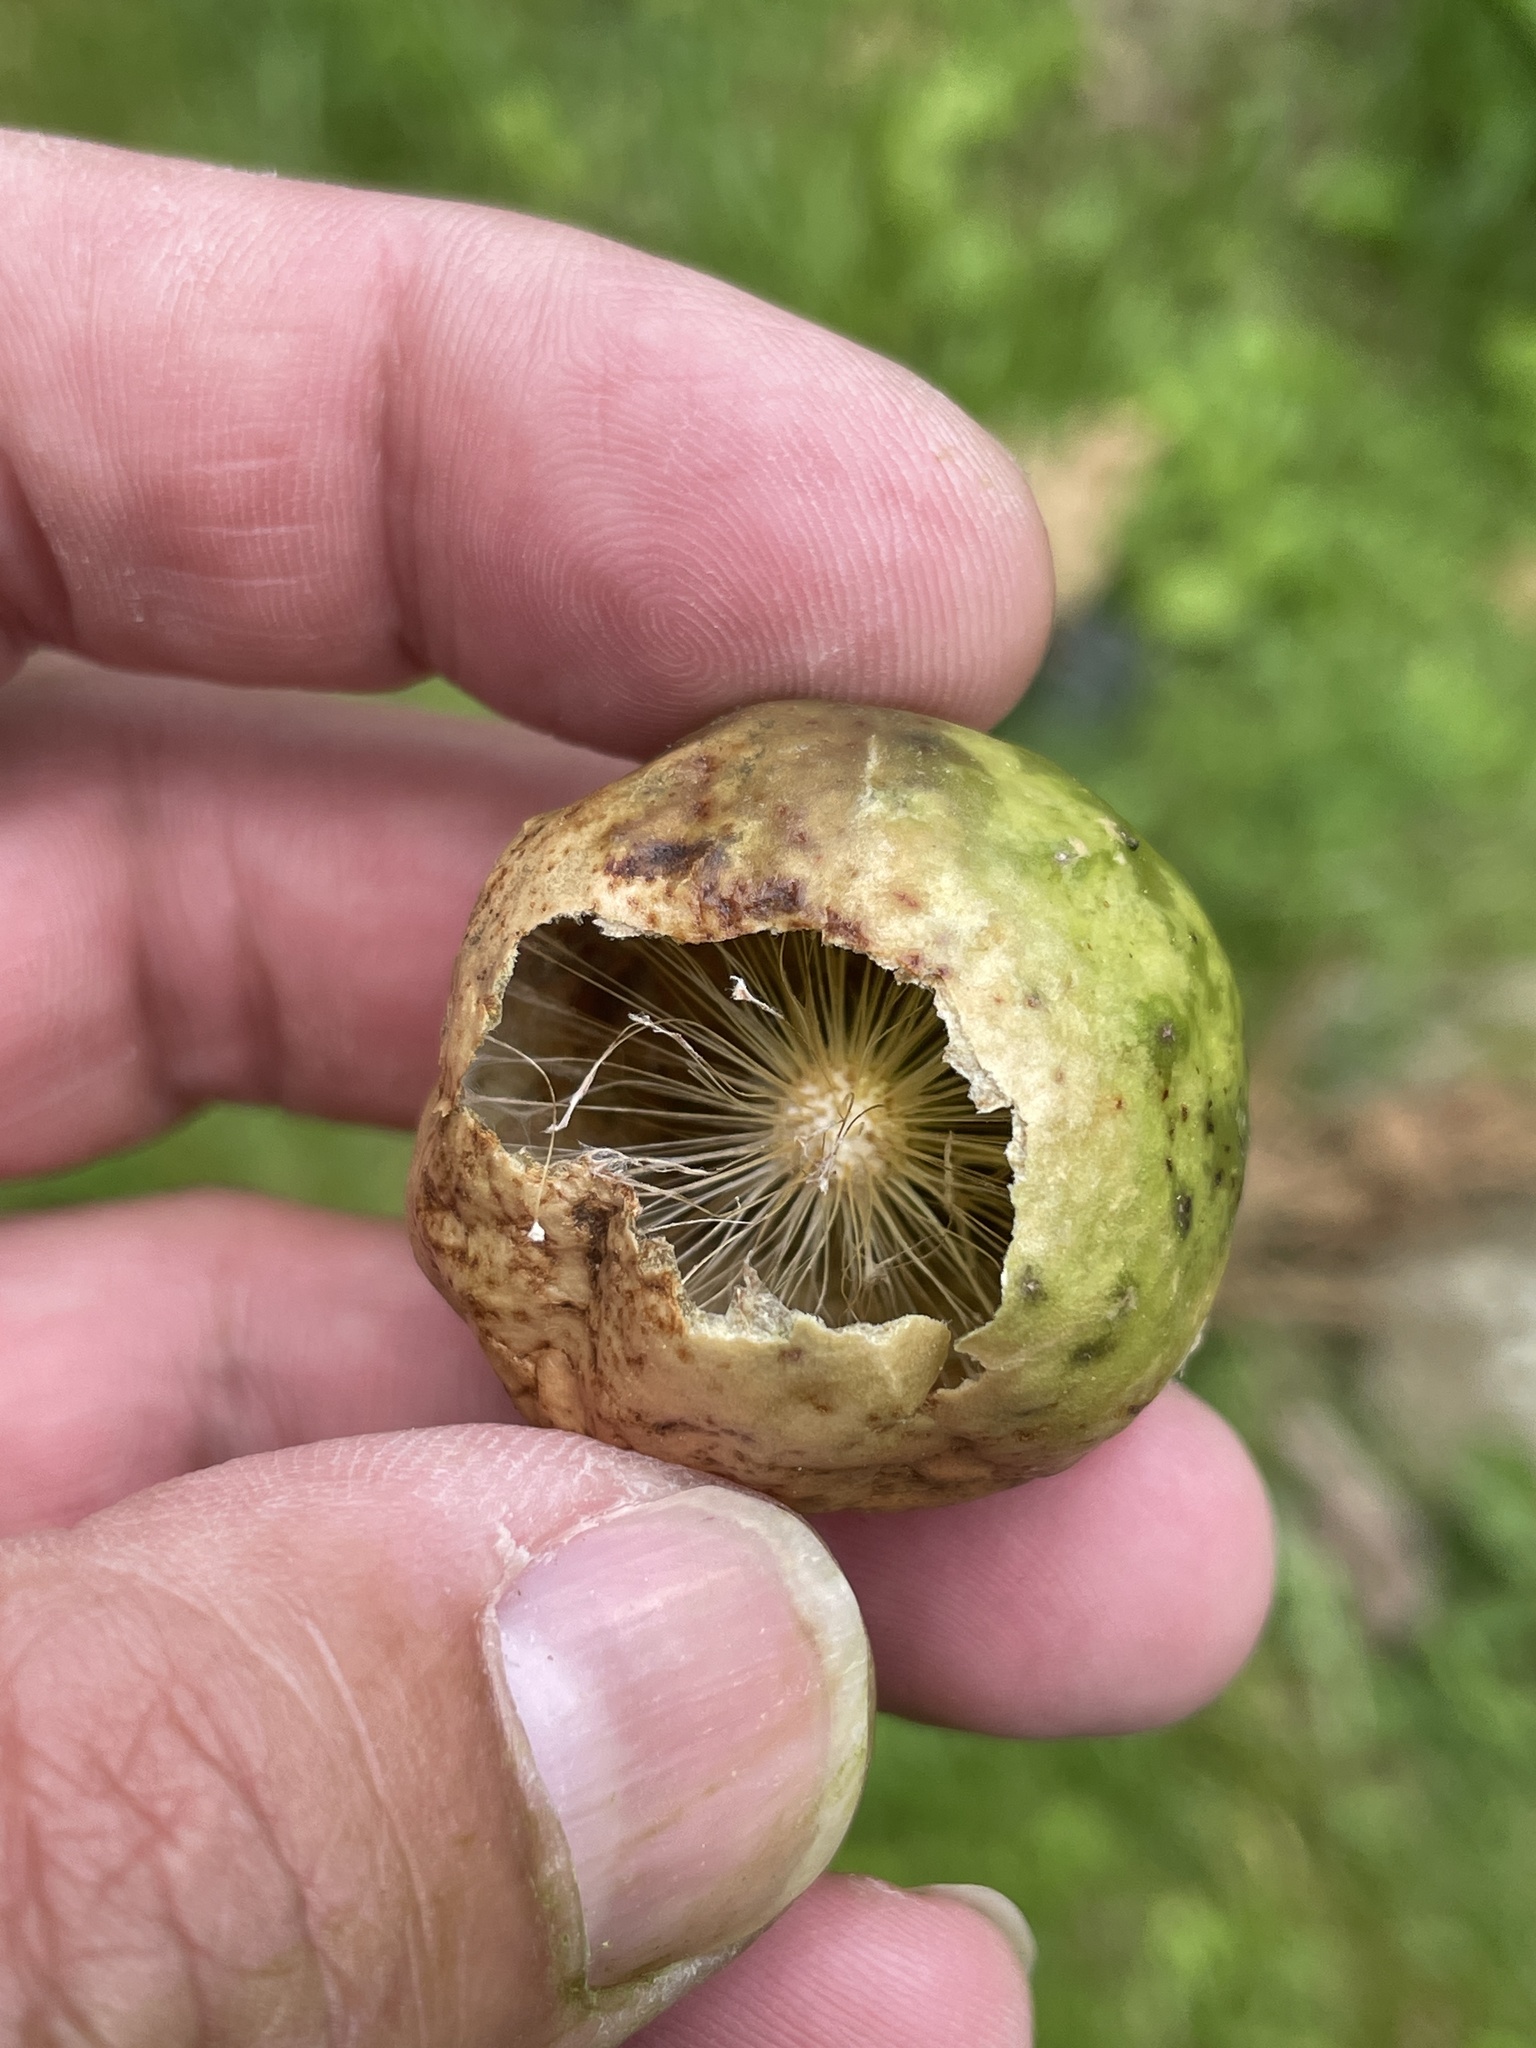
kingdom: Animalia
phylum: Arthropoda
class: Insecta
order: Hymenoptera
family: Cynipidae
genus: Amphibolips
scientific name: Amphibolips
